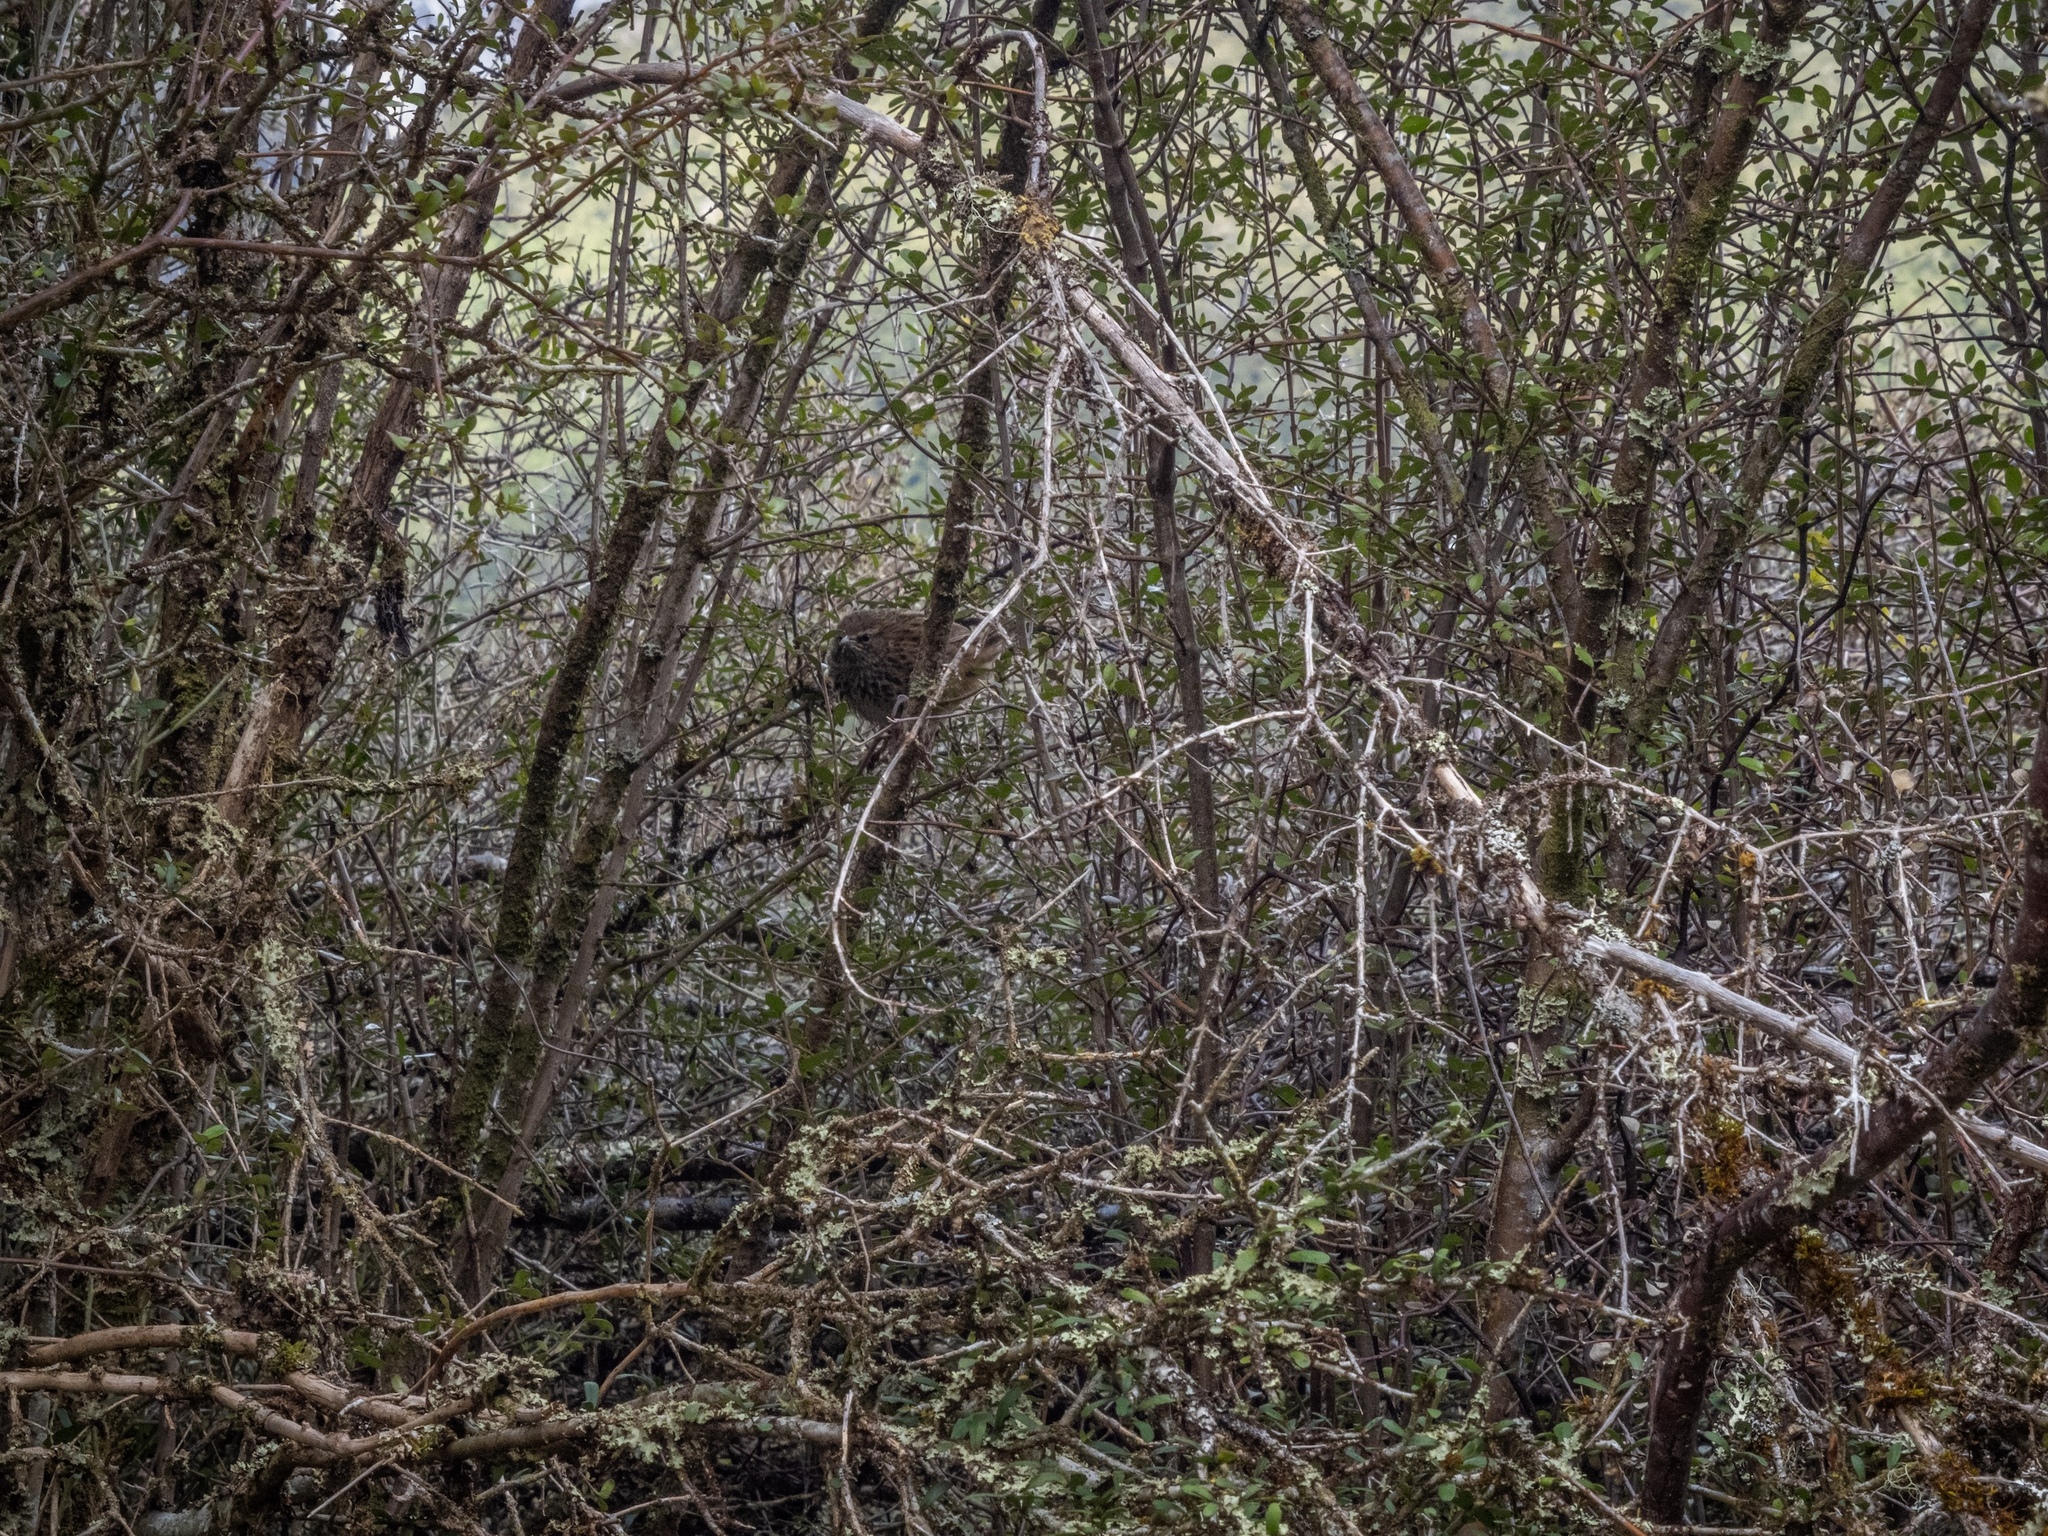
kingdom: Animalia
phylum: Chordata
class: Aves
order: Passeriformes
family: Locustellidae
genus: Poodytes
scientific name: Poodytes punctatus
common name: New zealand fernbird
